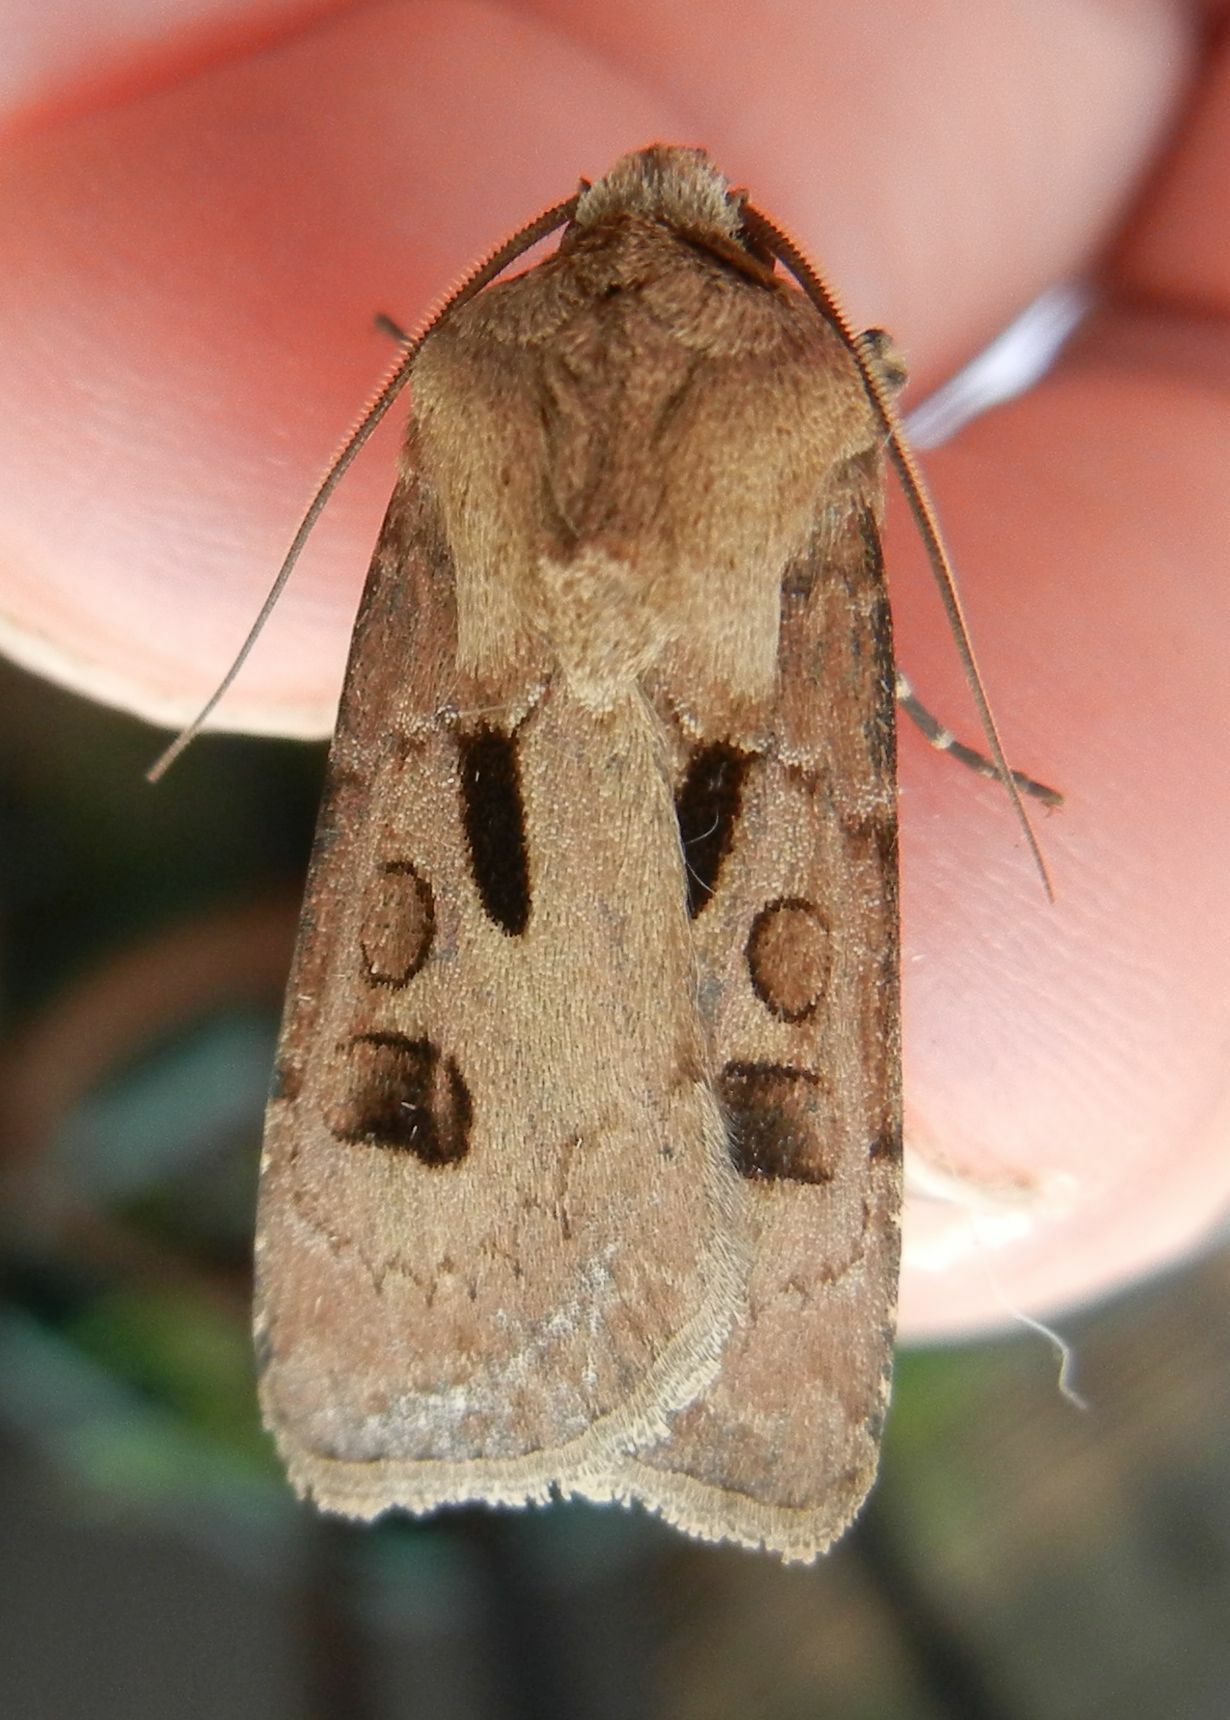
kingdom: Animalia
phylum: Arthropoda
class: Insecta
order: Lepidoptera
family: Noctuidae
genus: Agrotis
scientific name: Agrotis exclamationis
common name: Heart and dart
